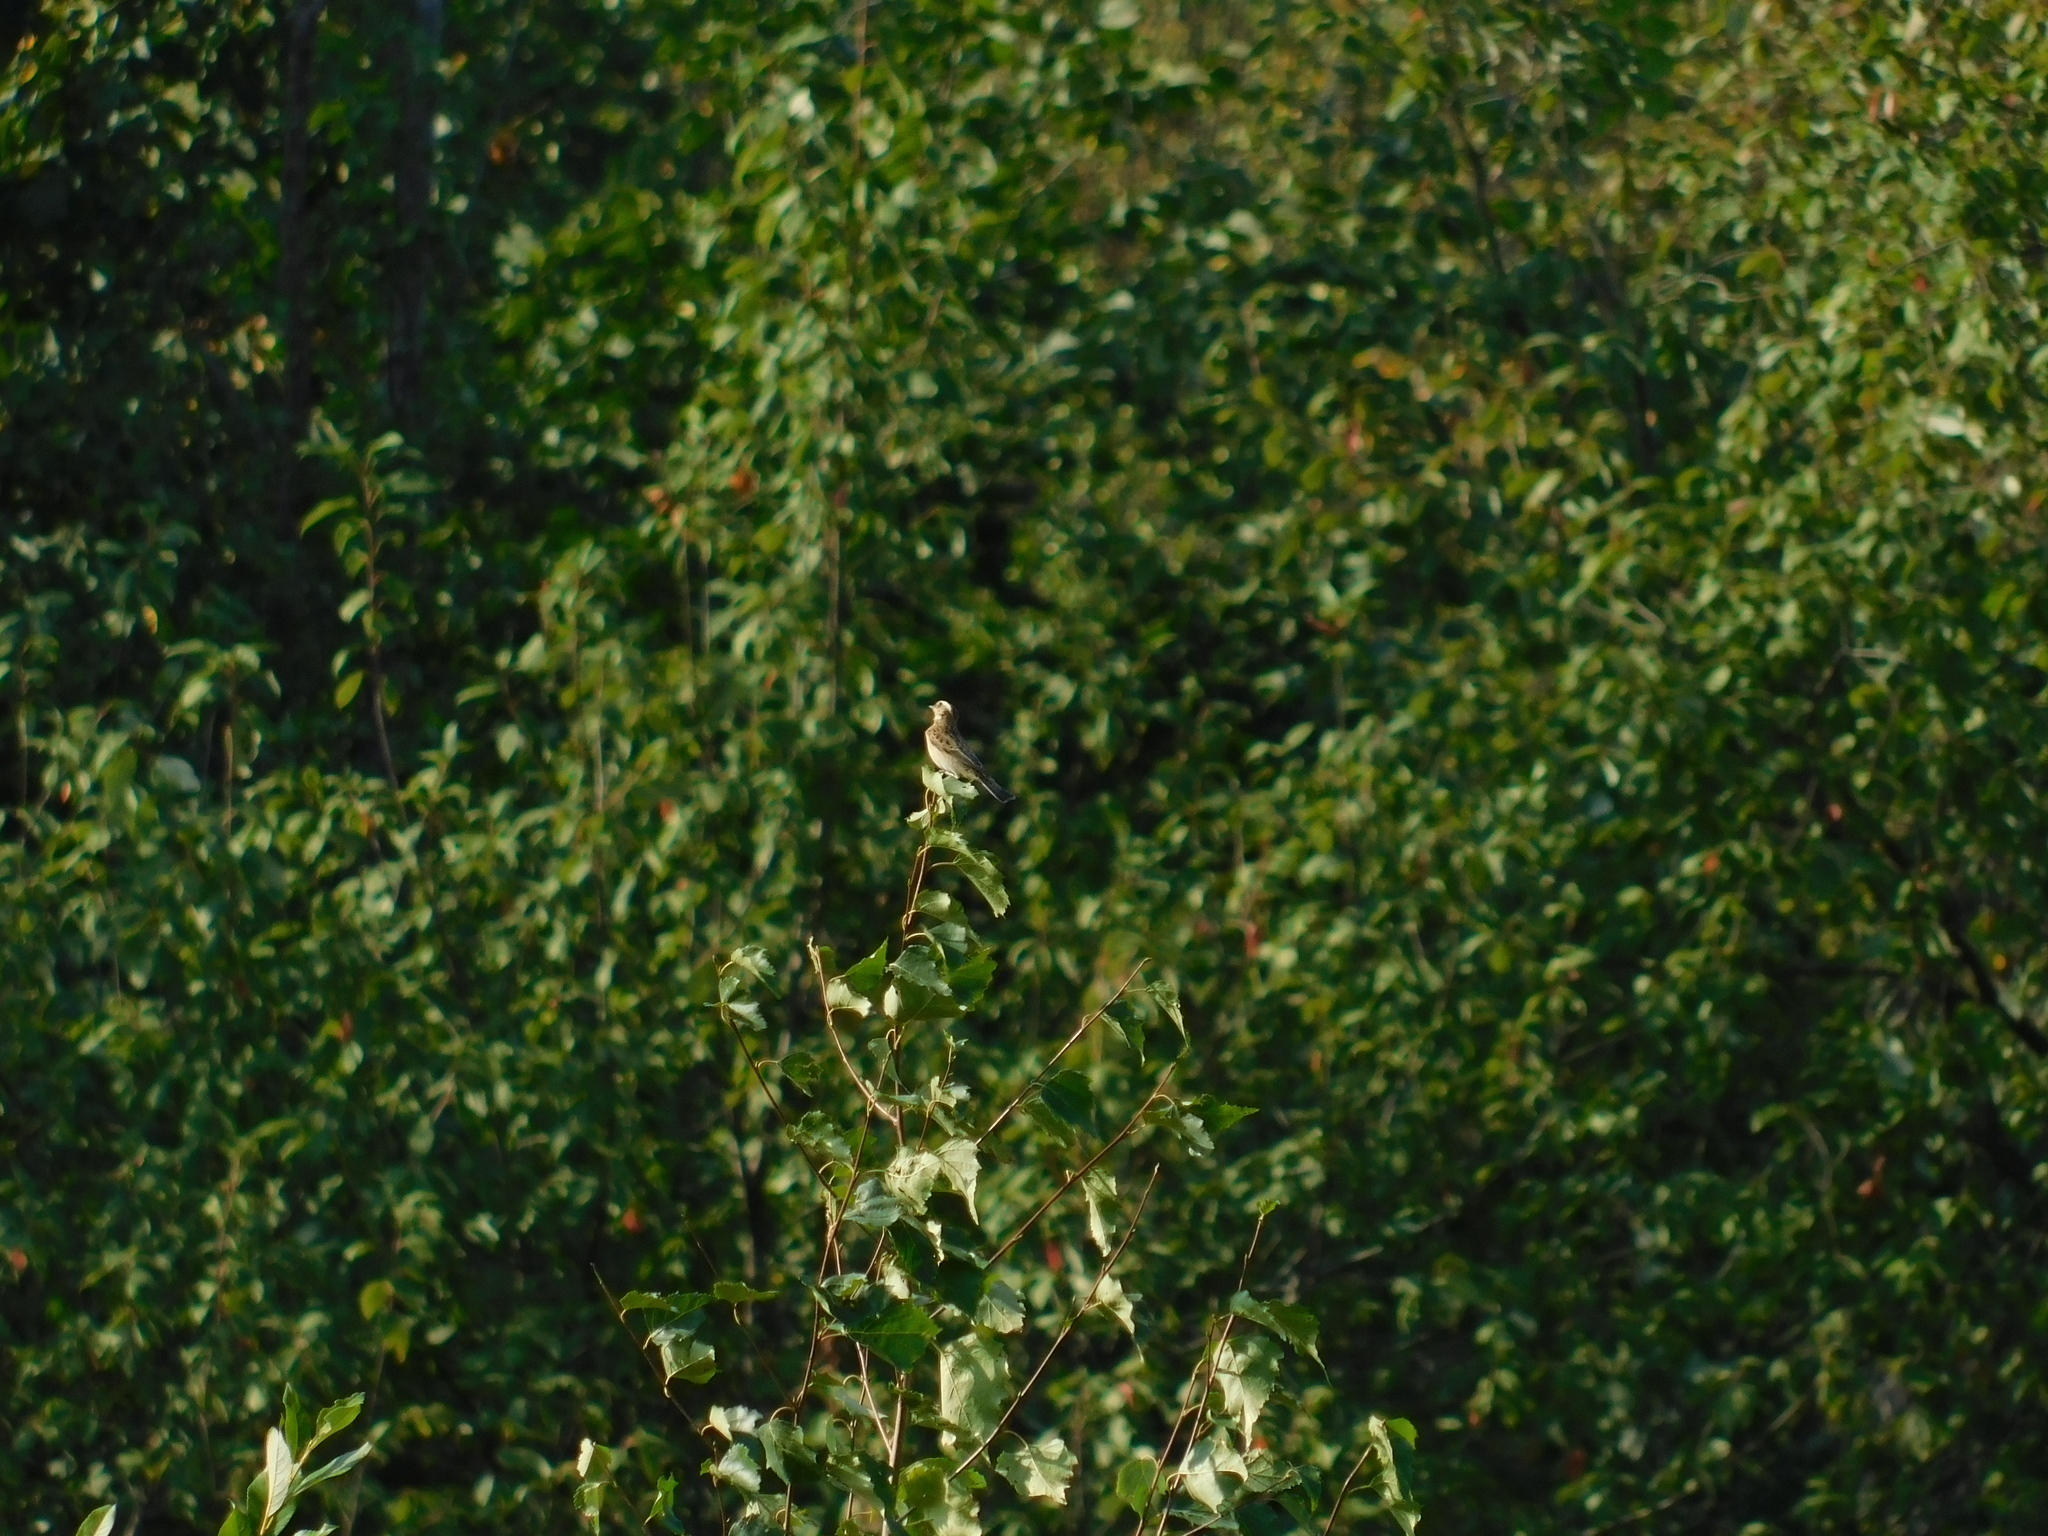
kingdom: Animalia
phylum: Chordata
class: Aves
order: Passeriformes
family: Muscicapidae
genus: Saxicola
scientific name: Saxicola rubetra
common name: Whinchat
